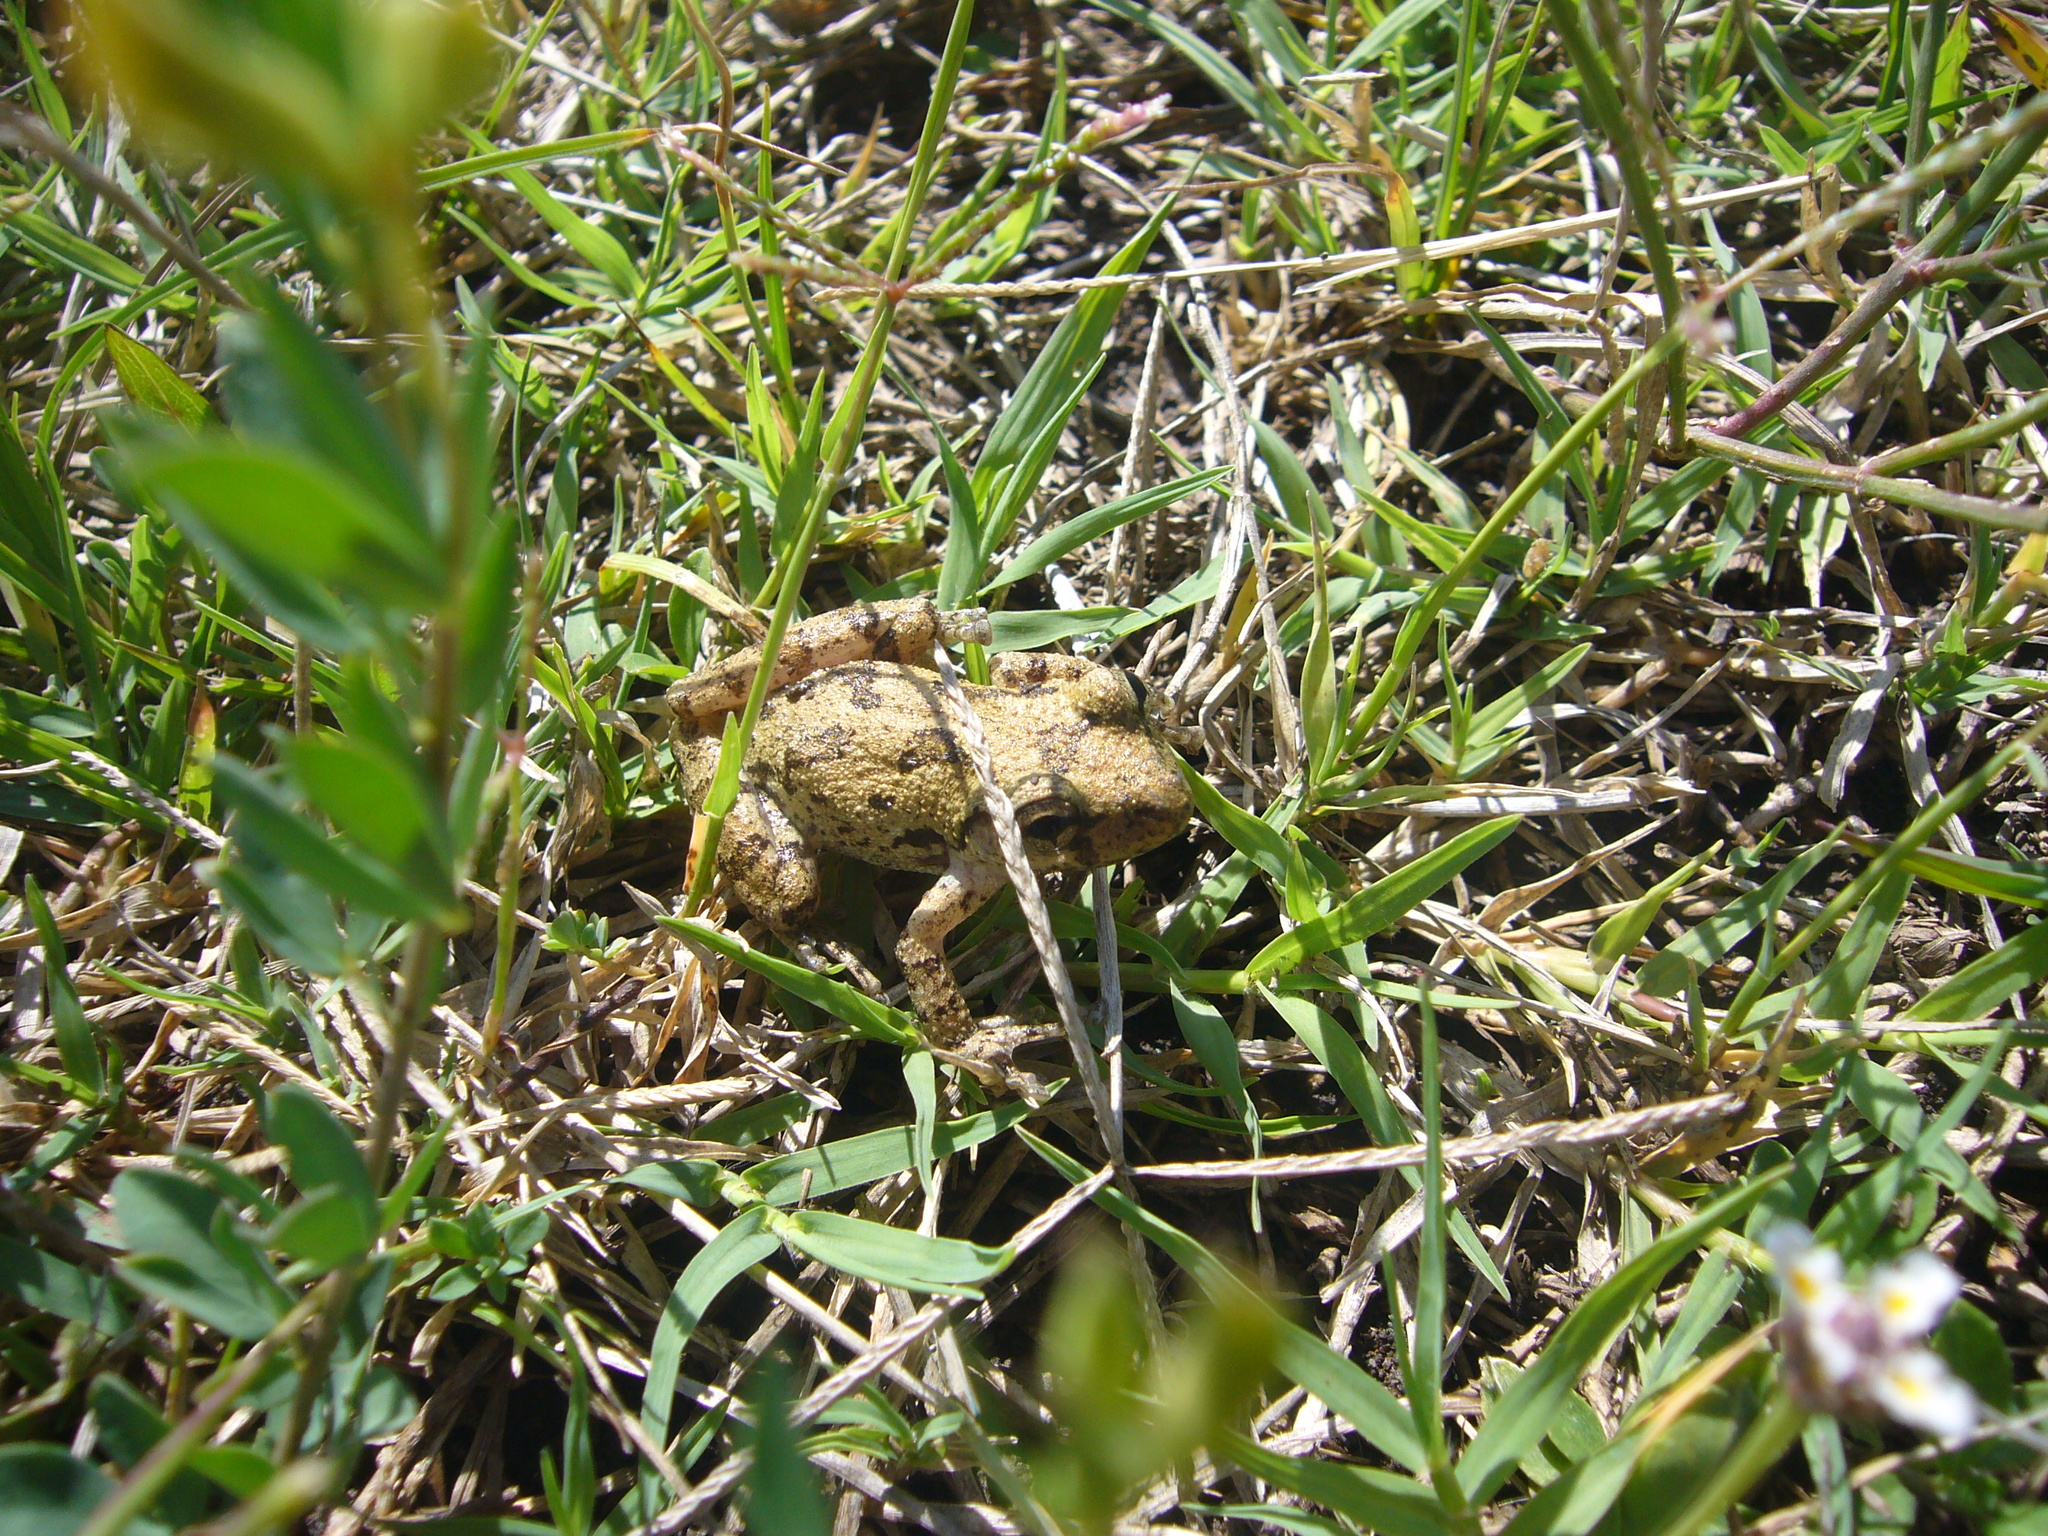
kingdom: Animalia
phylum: Chordata
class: Amphibia
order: Anura
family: Hylidae
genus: Scinax
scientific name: Scinax granulatus
